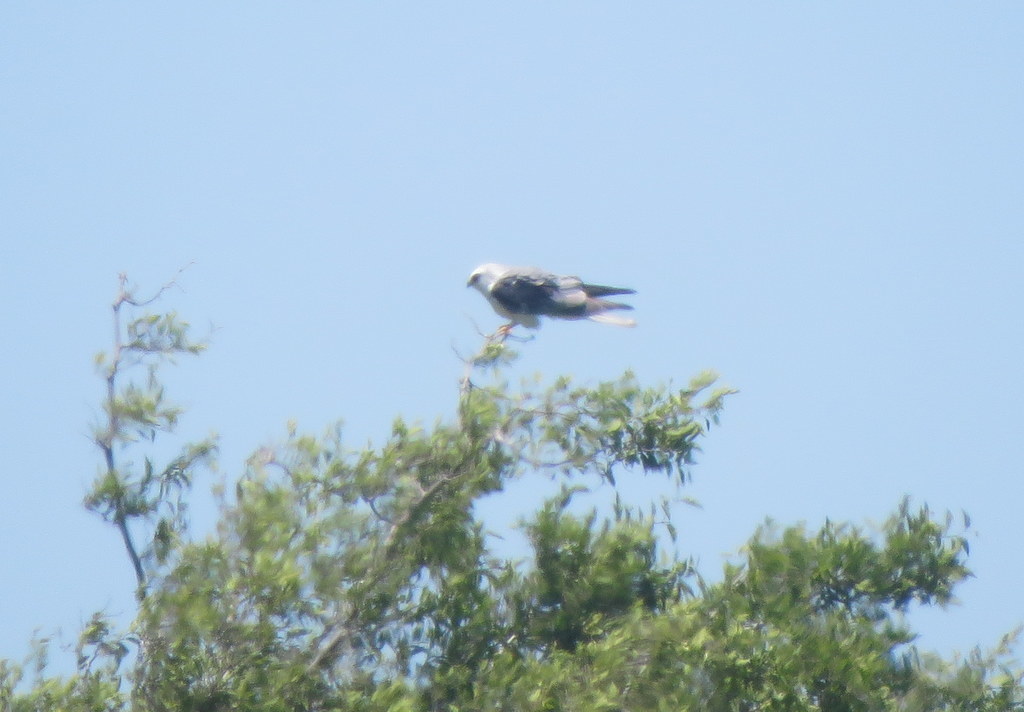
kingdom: Animalia
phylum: Chordata
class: Aves
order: Accipitriformes
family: Accipitridae
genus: Elanus
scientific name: Elanus leucurus
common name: White-tailed kite
